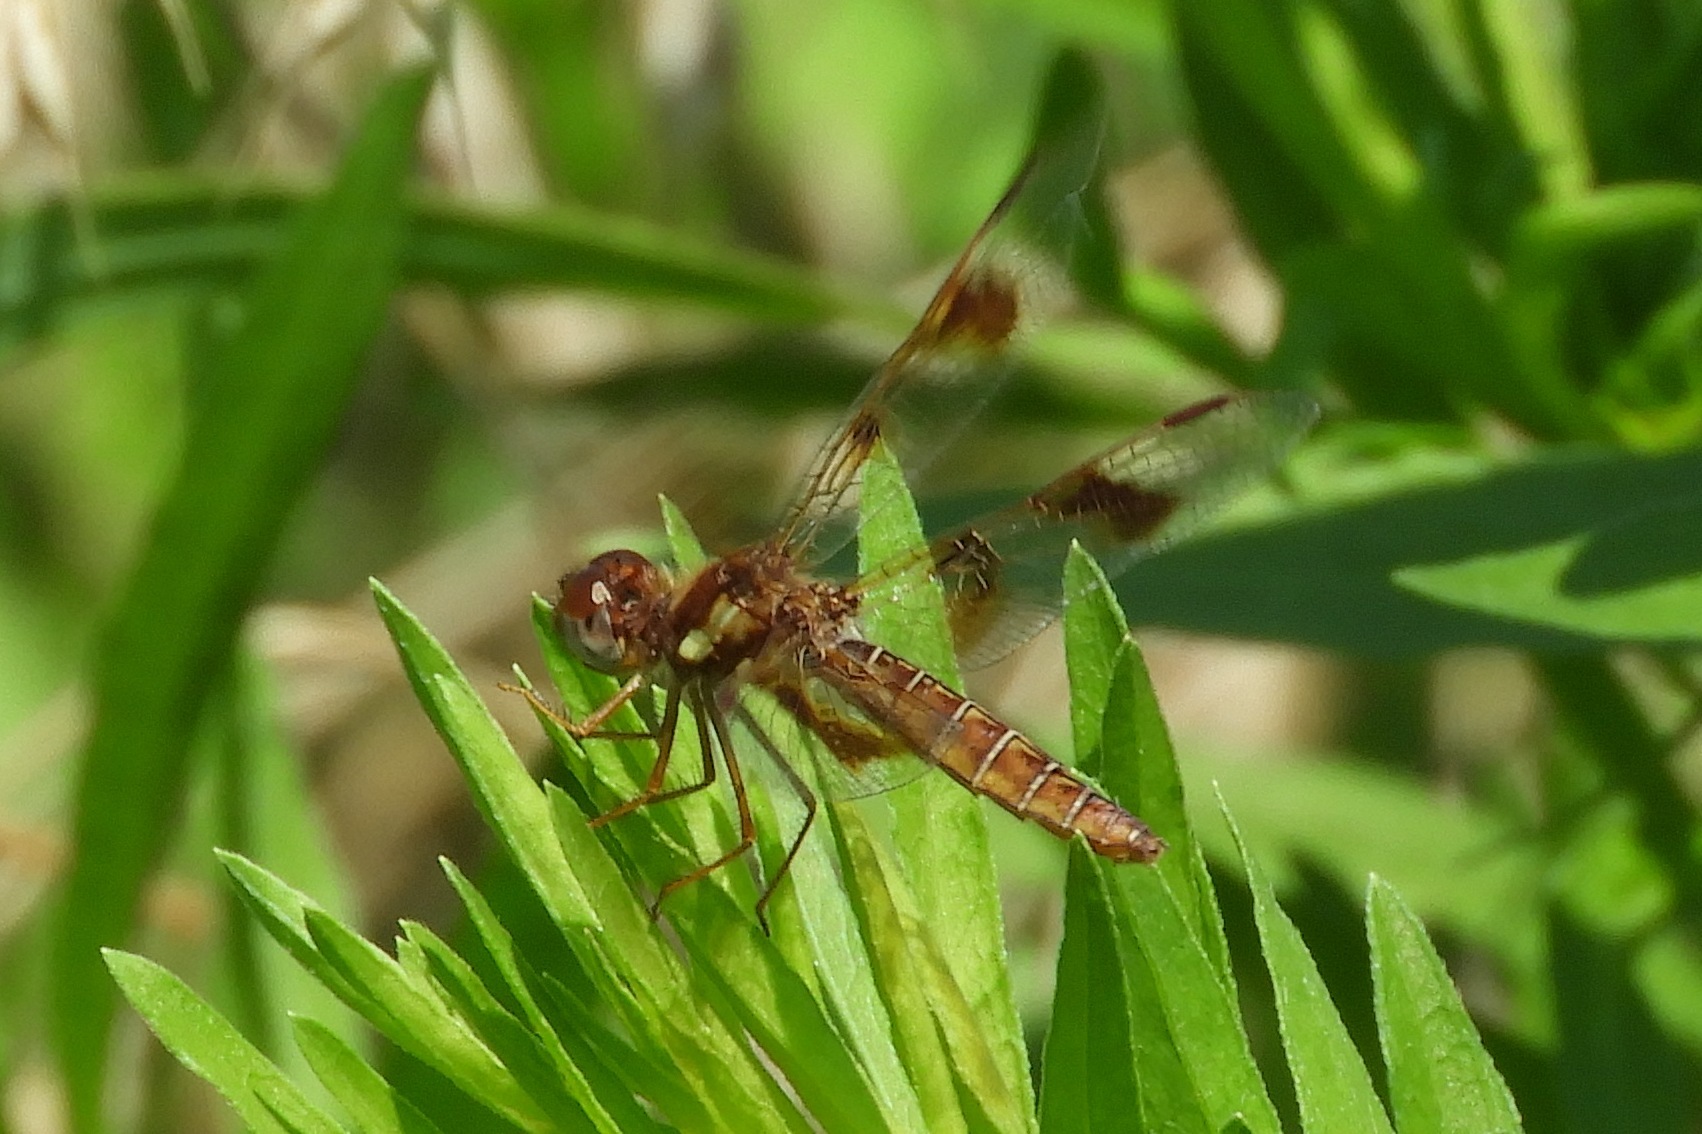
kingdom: Animalia
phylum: Arthropoda
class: Insecta
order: Odonata
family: Libellulidae
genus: Perithemis
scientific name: Perithemis tenera
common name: Eastern amberwing
